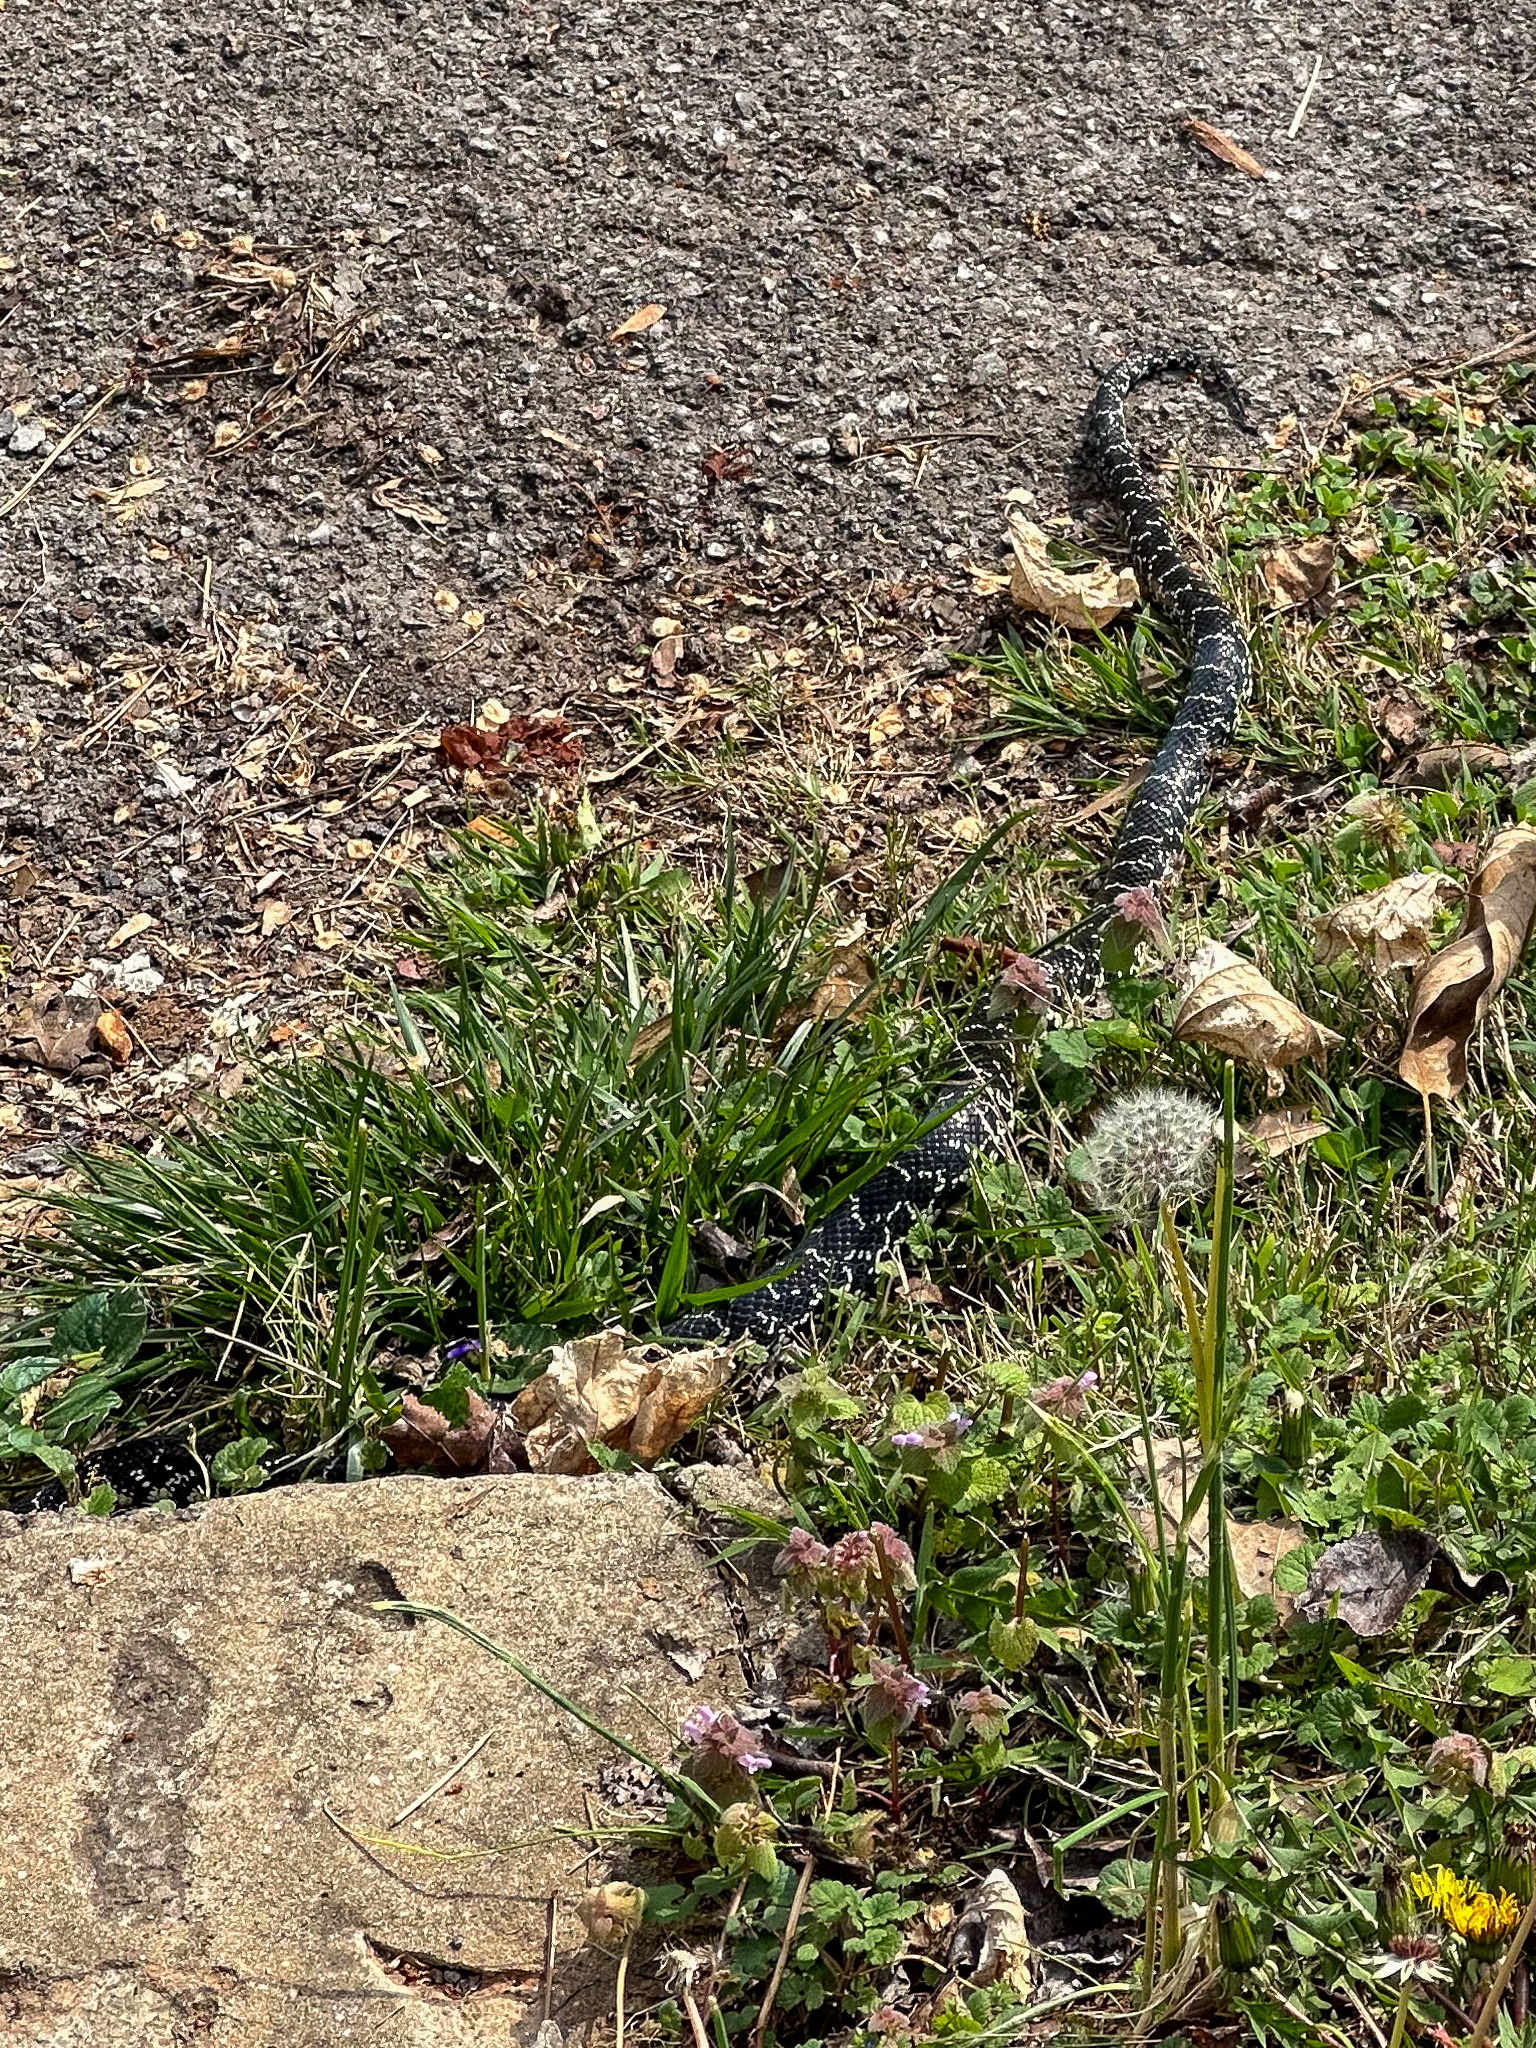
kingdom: Animalia
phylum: Chordata
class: Squamata
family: Colubridae
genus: Lampropeltis
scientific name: Lampropeltis nigra
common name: Black kingsnake
